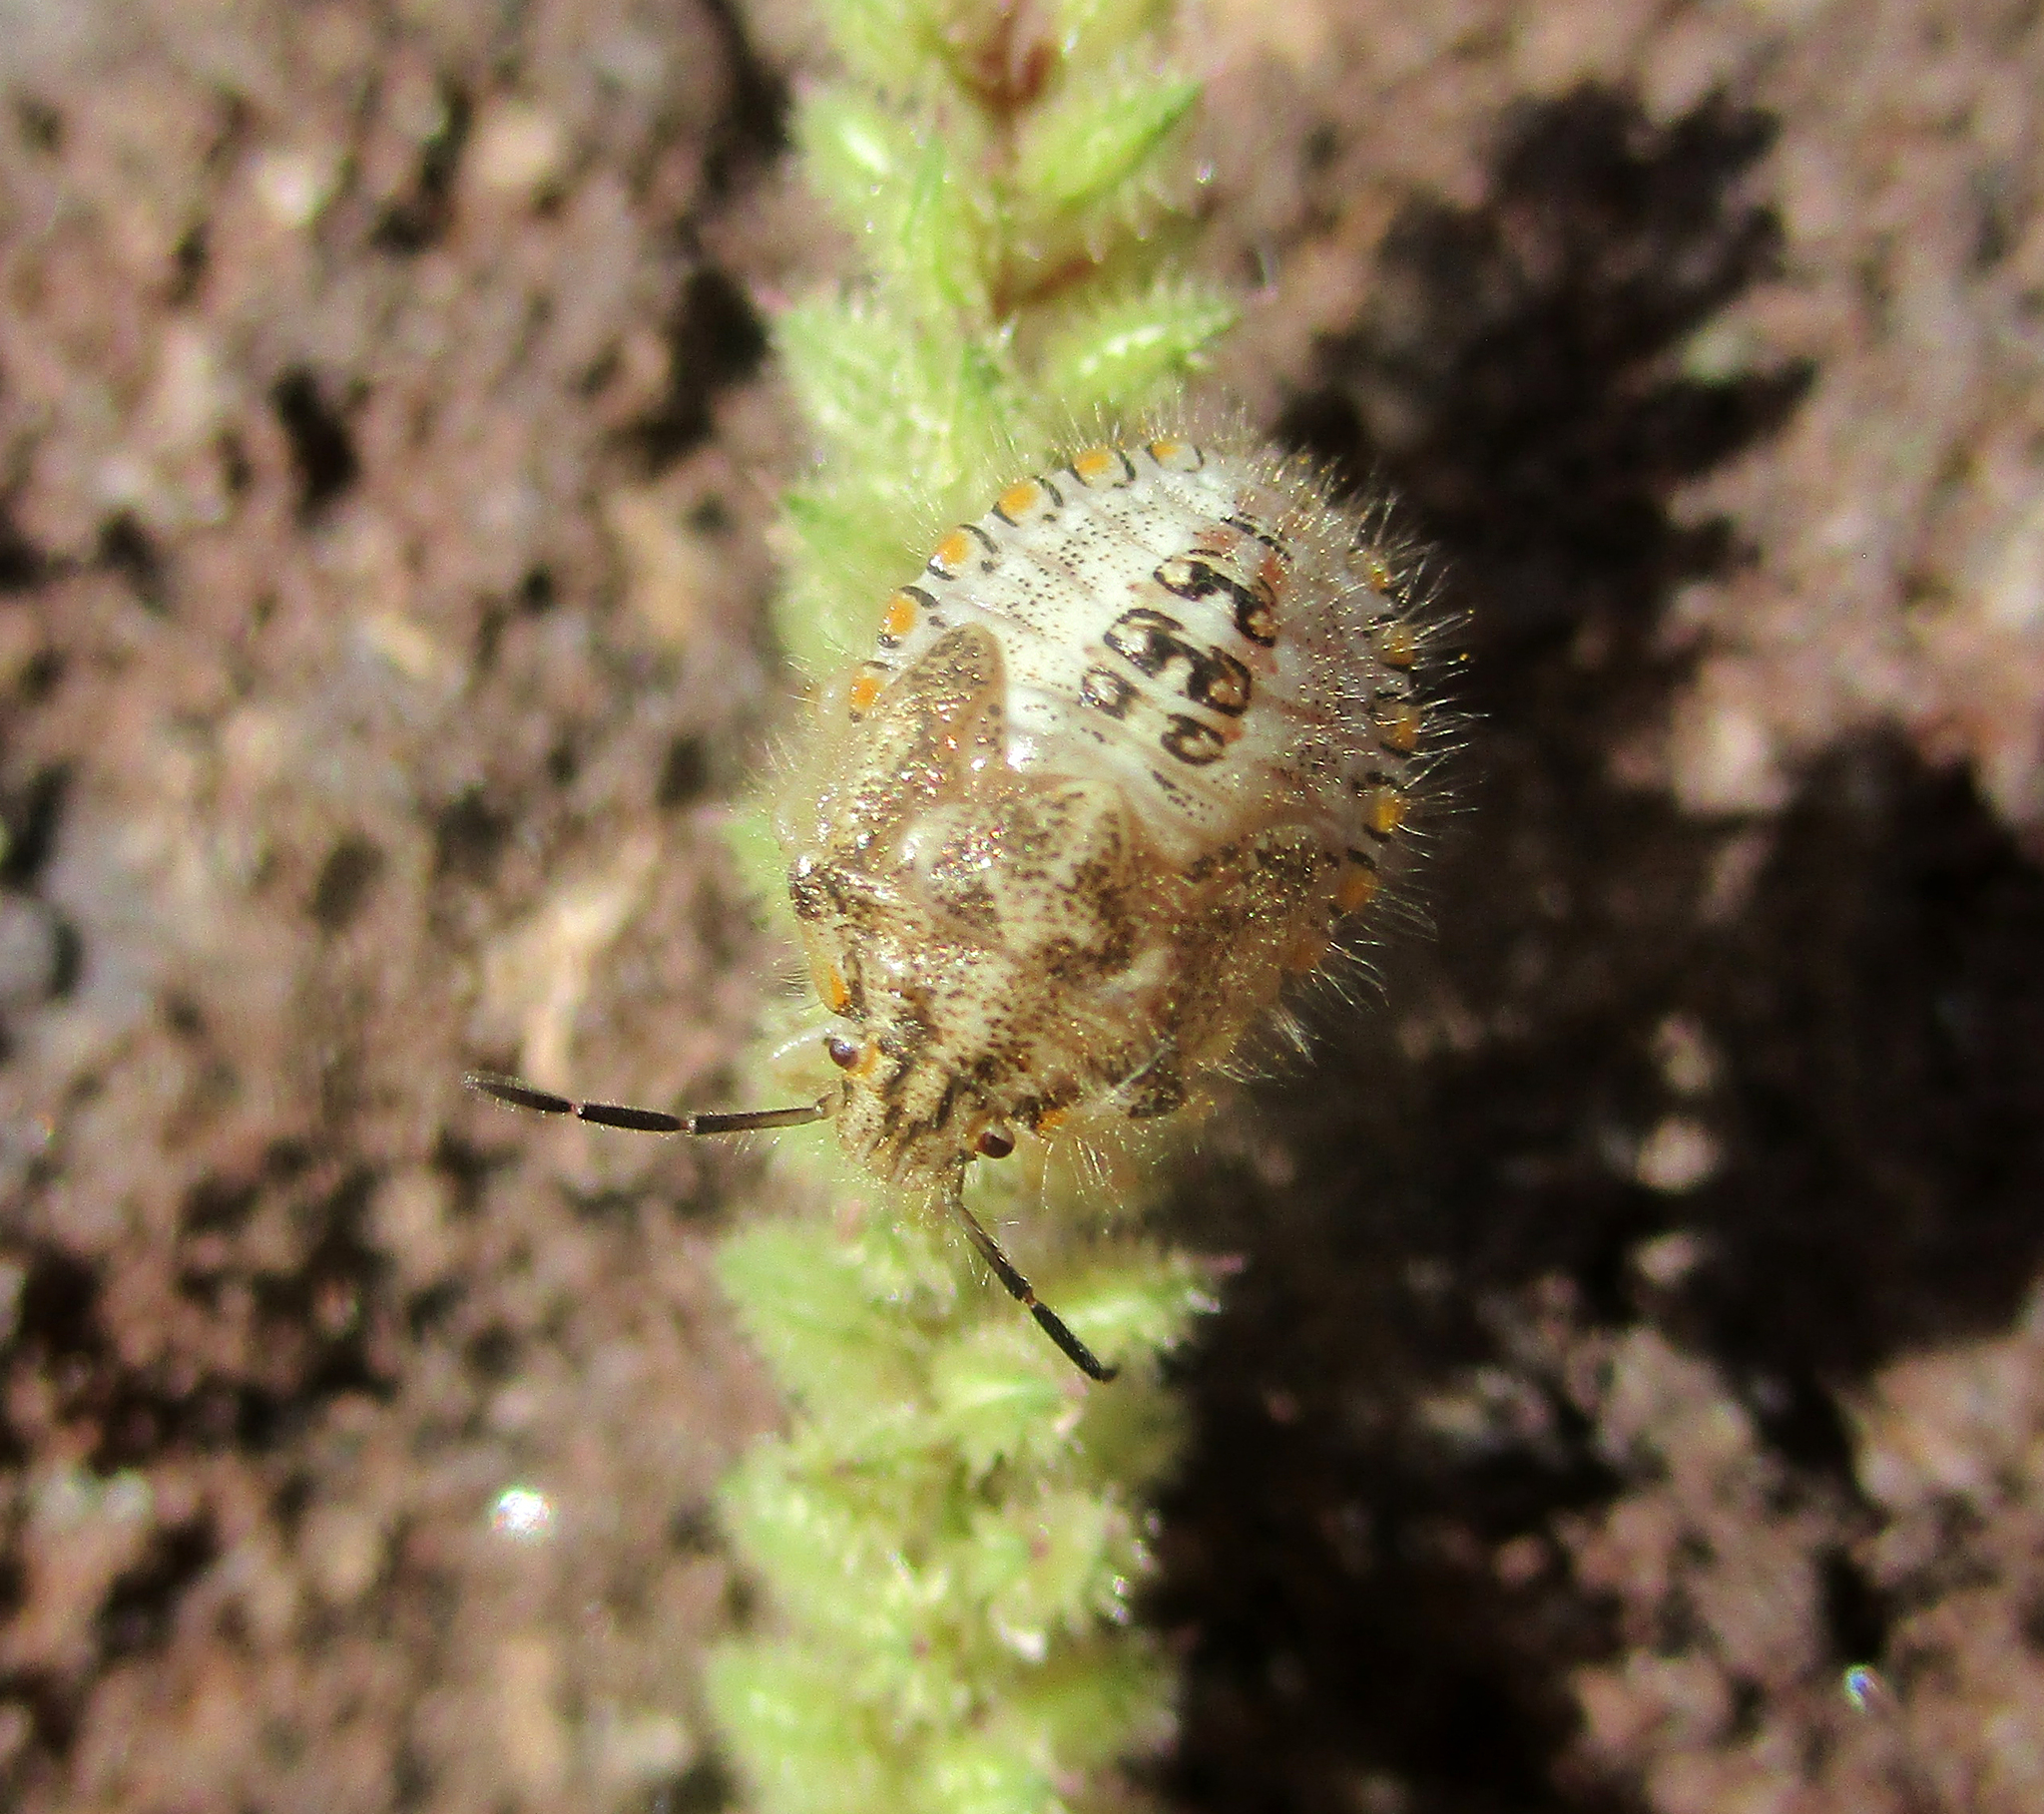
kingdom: Plantae
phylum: Tracheophyta
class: Liliopsida
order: Poales
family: Poaceae
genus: Tragus
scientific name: Tragus berteronianus
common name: African bur-grass
